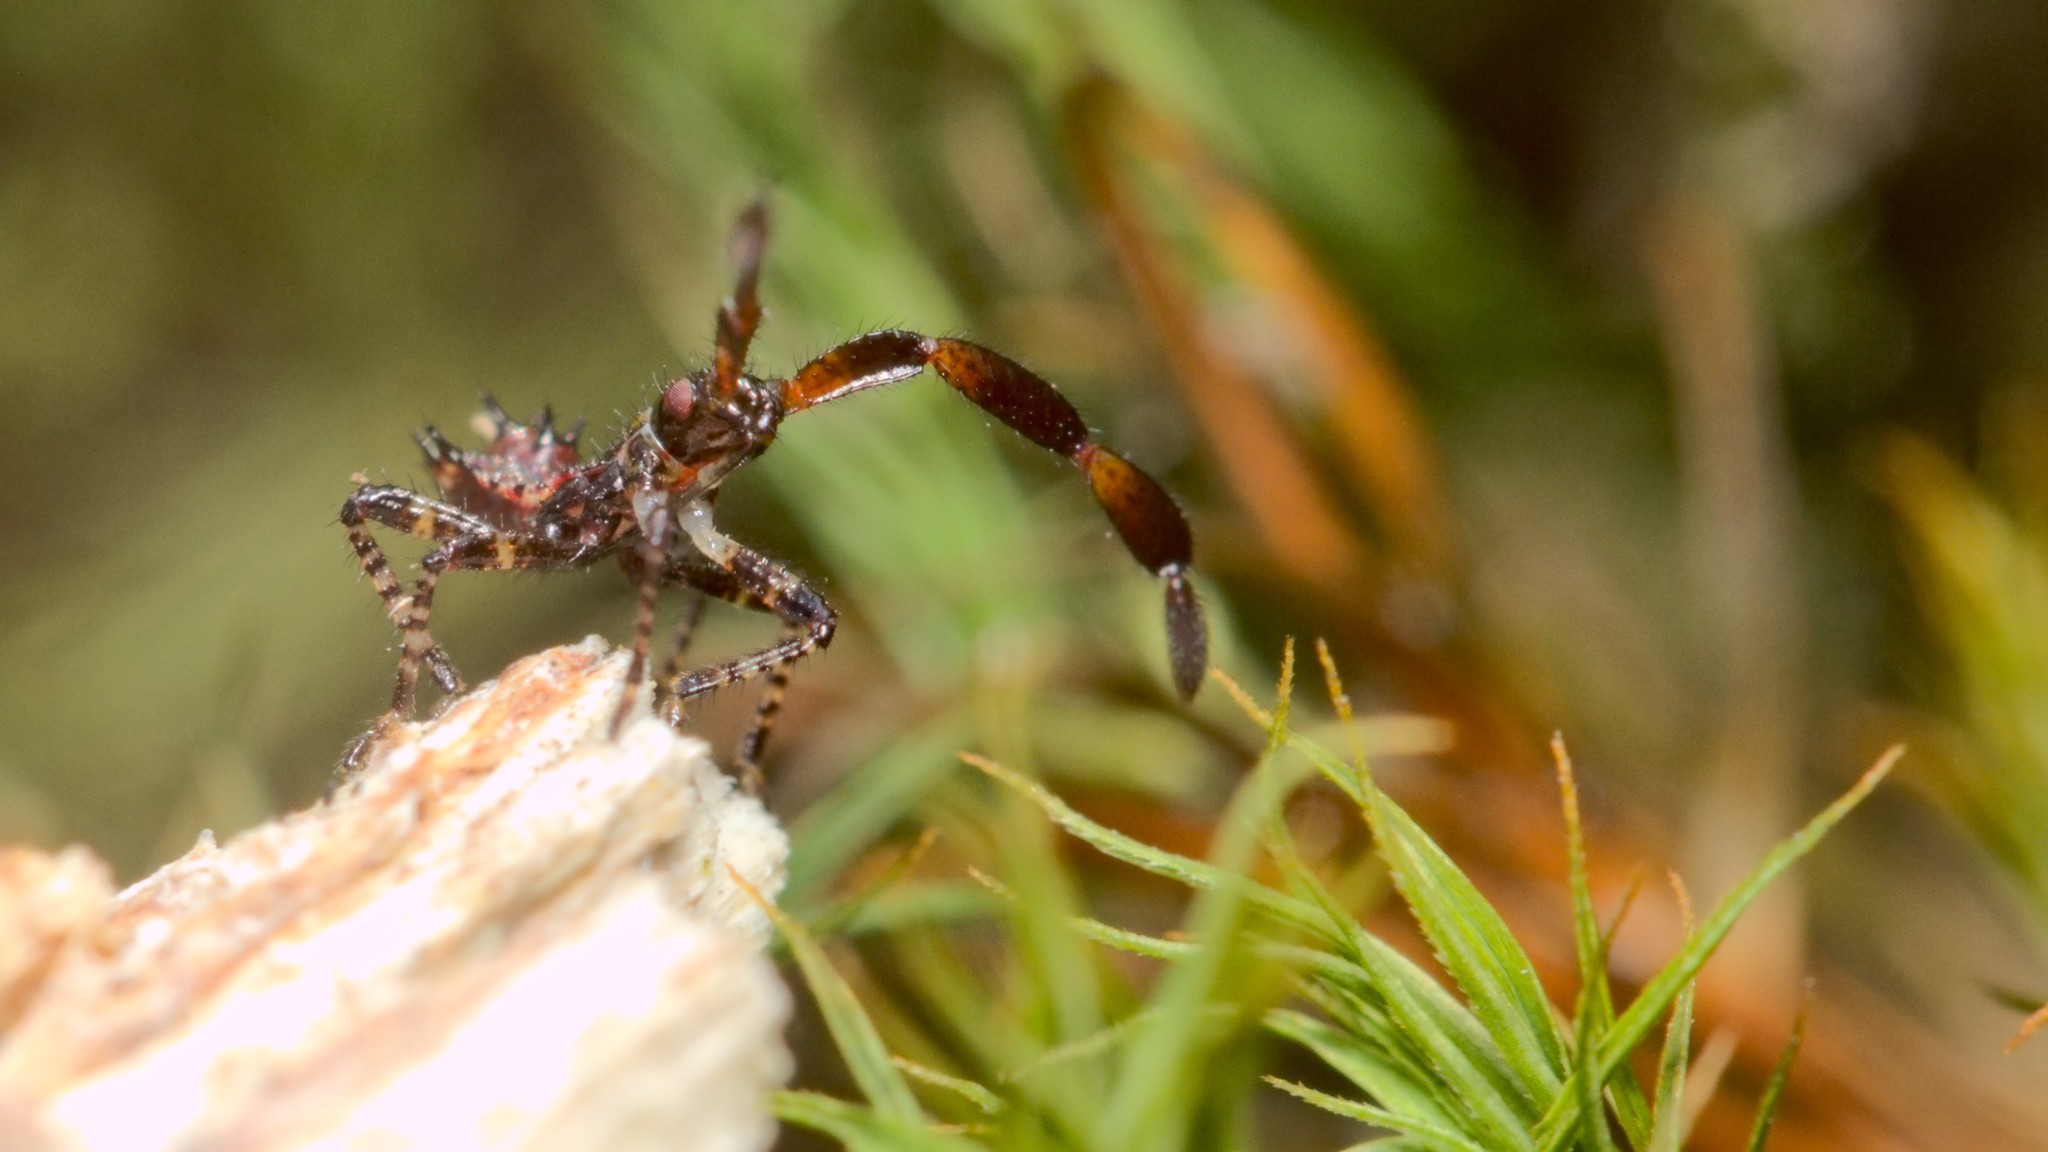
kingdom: Animalia
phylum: Arthropoda
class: Insecta
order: Hemiptera
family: Coreidae
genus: Coreus
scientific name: Coreus marginatus
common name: Dock bug
